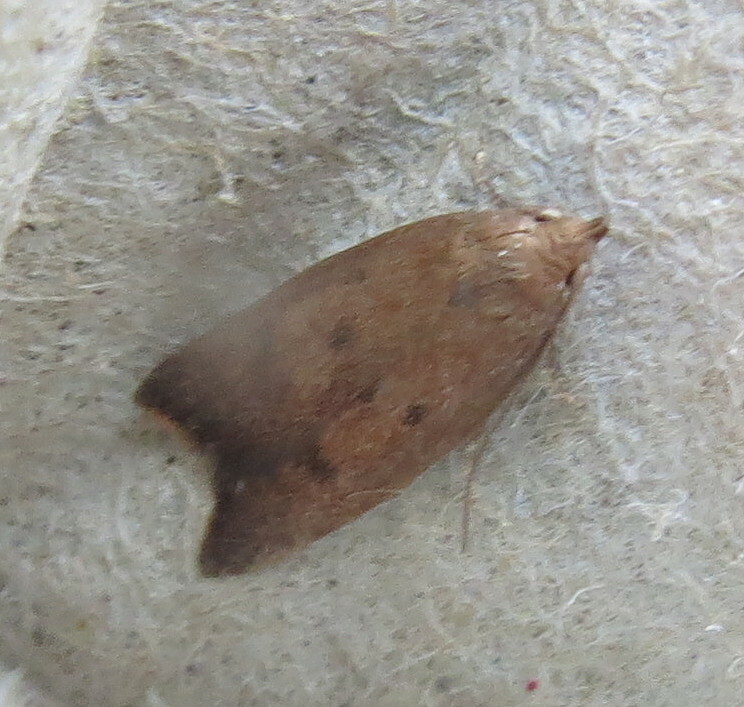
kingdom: Animalia
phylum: Arthropoda
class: Insecta
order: Lepidoptera
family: Oecophoridae
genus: Tachystola
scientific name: Tachystola acroxantha
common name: Ruddy streak
